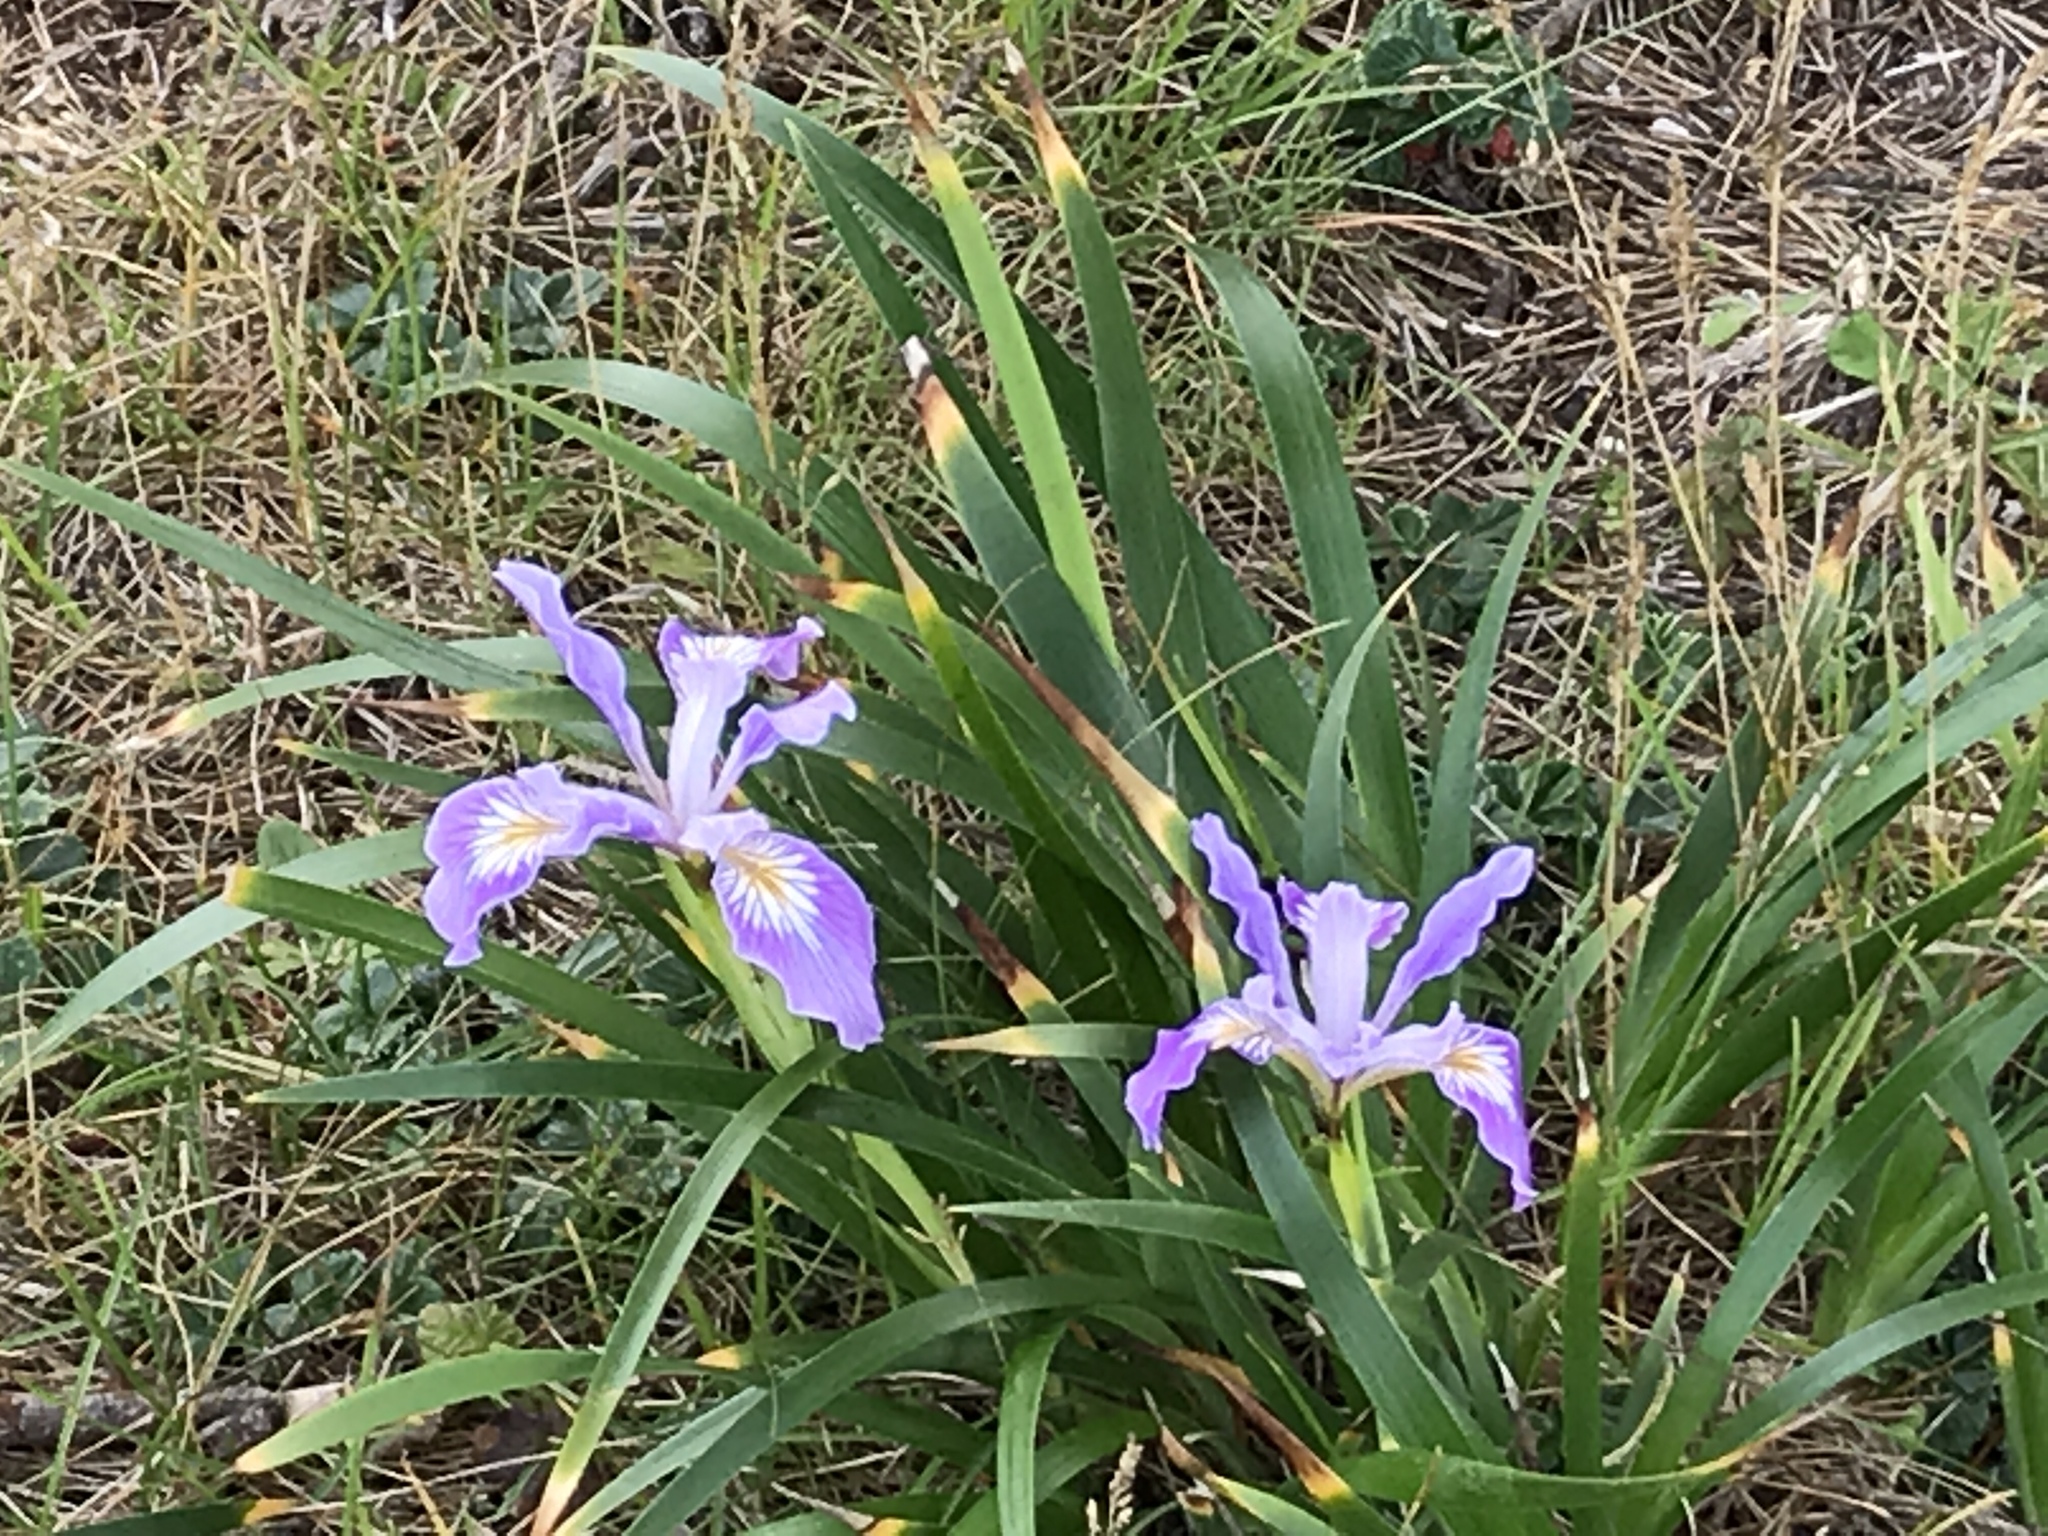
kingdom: Plantae
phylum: Tracheophyta
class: Liliopsida
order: Asparagales
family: Iridaceae
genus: Iris
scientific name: Iris douglasiana
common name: Marin iris
